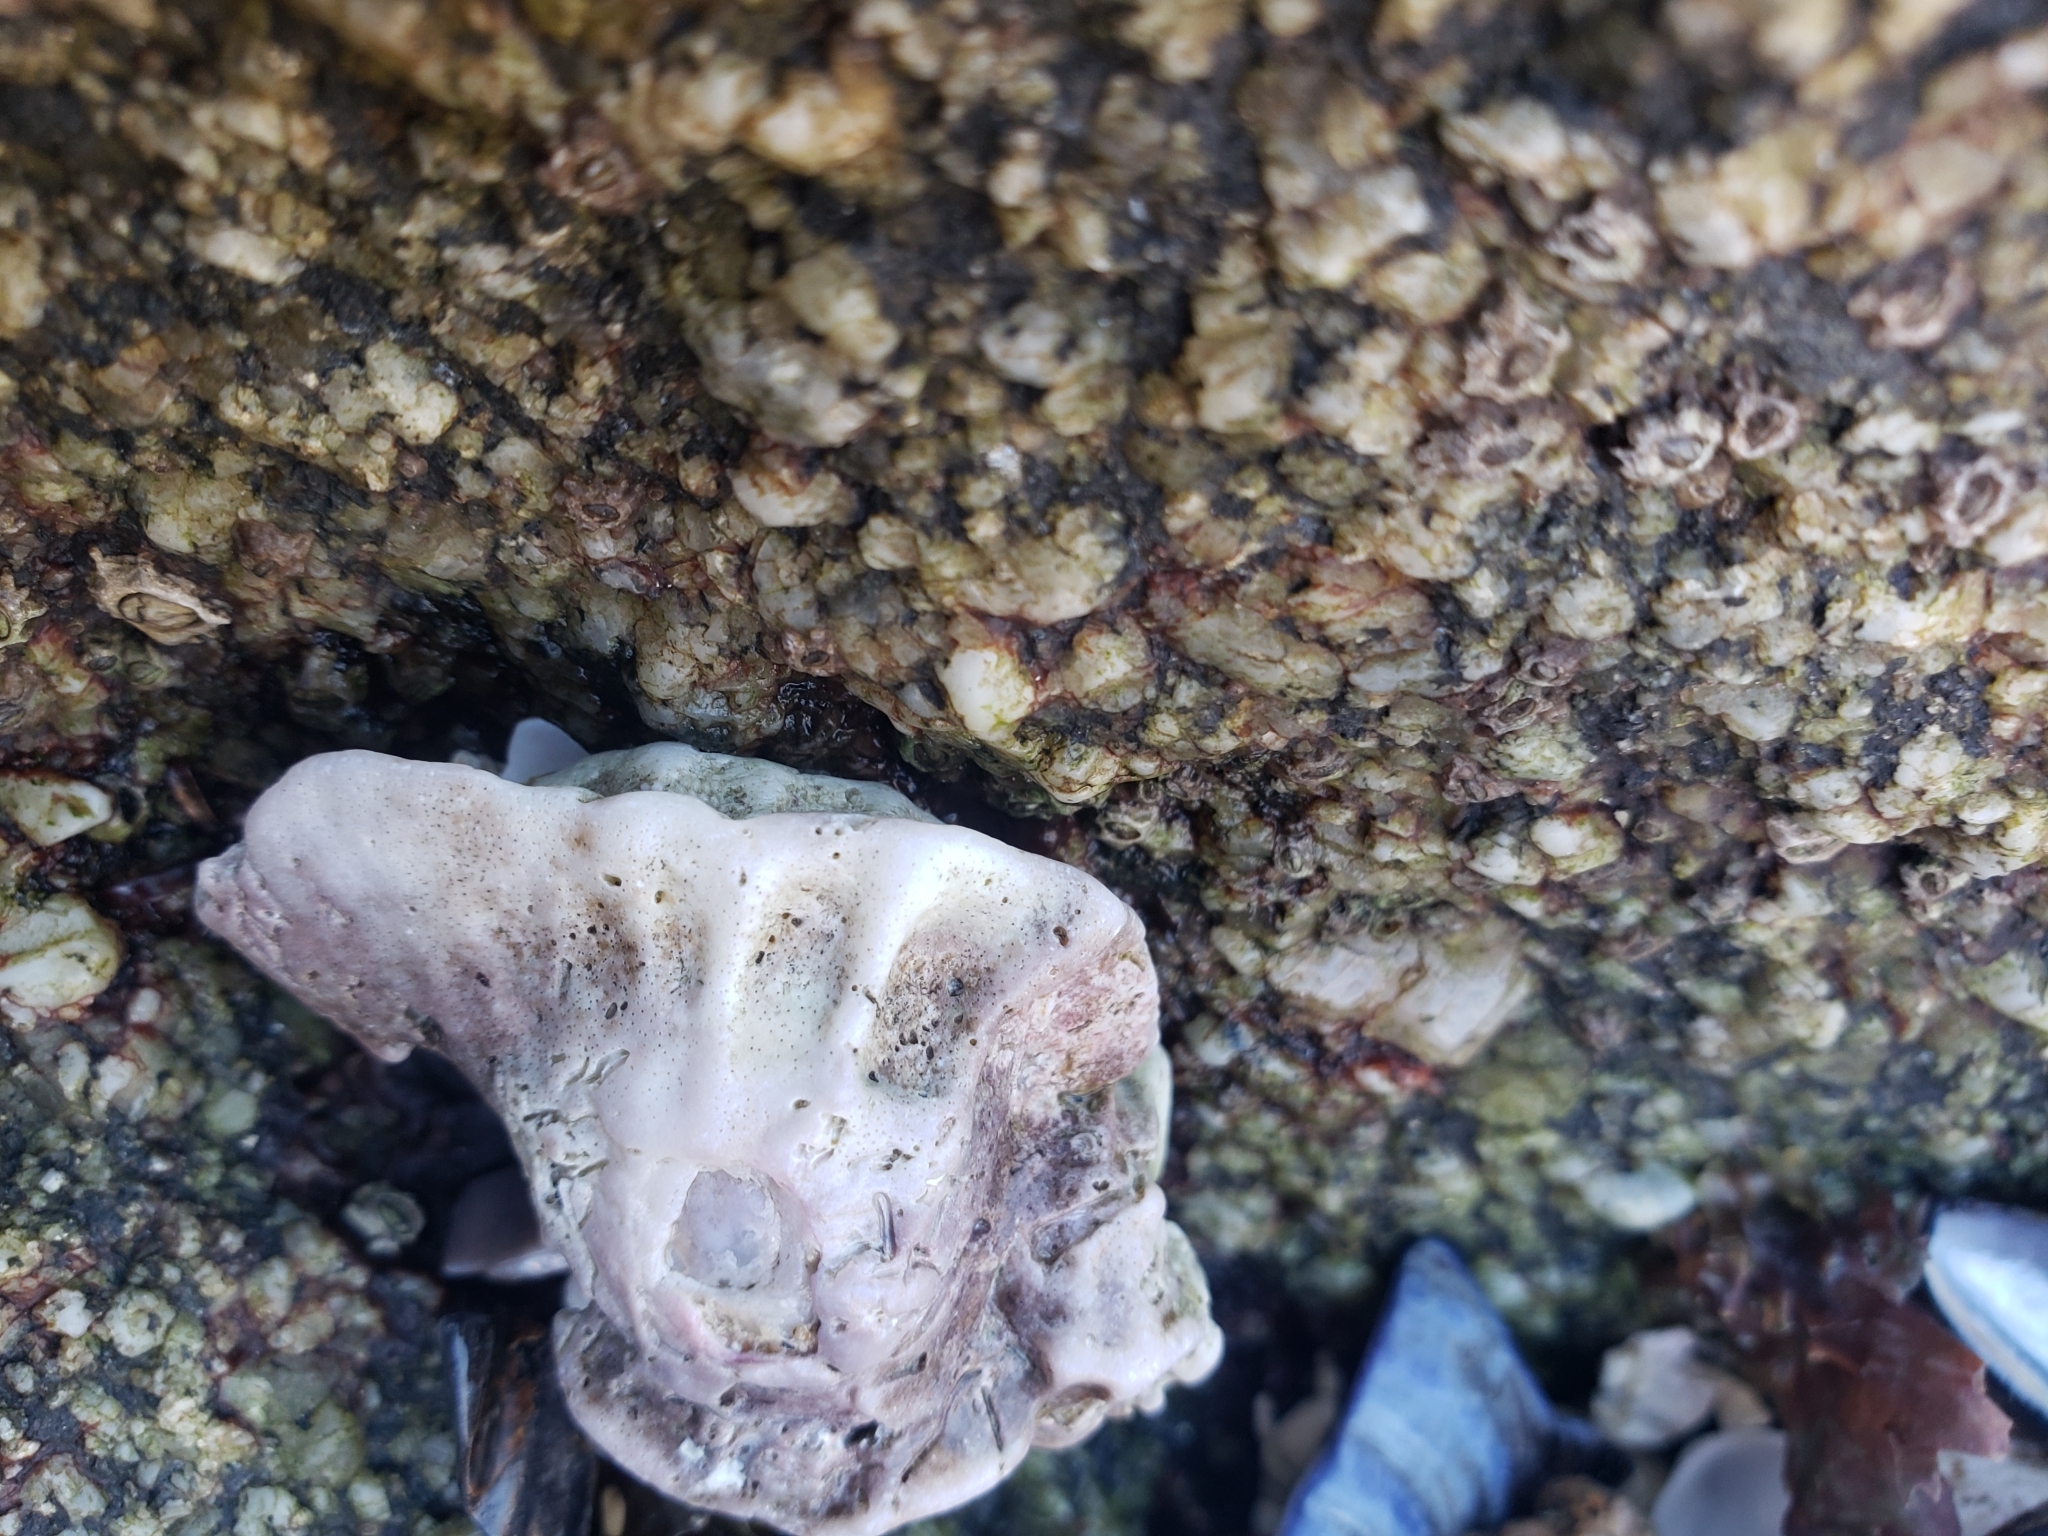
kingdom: Animalia
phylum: Mollusca
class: Gastropoda
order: Neogastropoda
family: Muricidae
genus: Ceratostoma
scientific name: Ceratostoma foliatum
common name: Foliate thorn purpura
